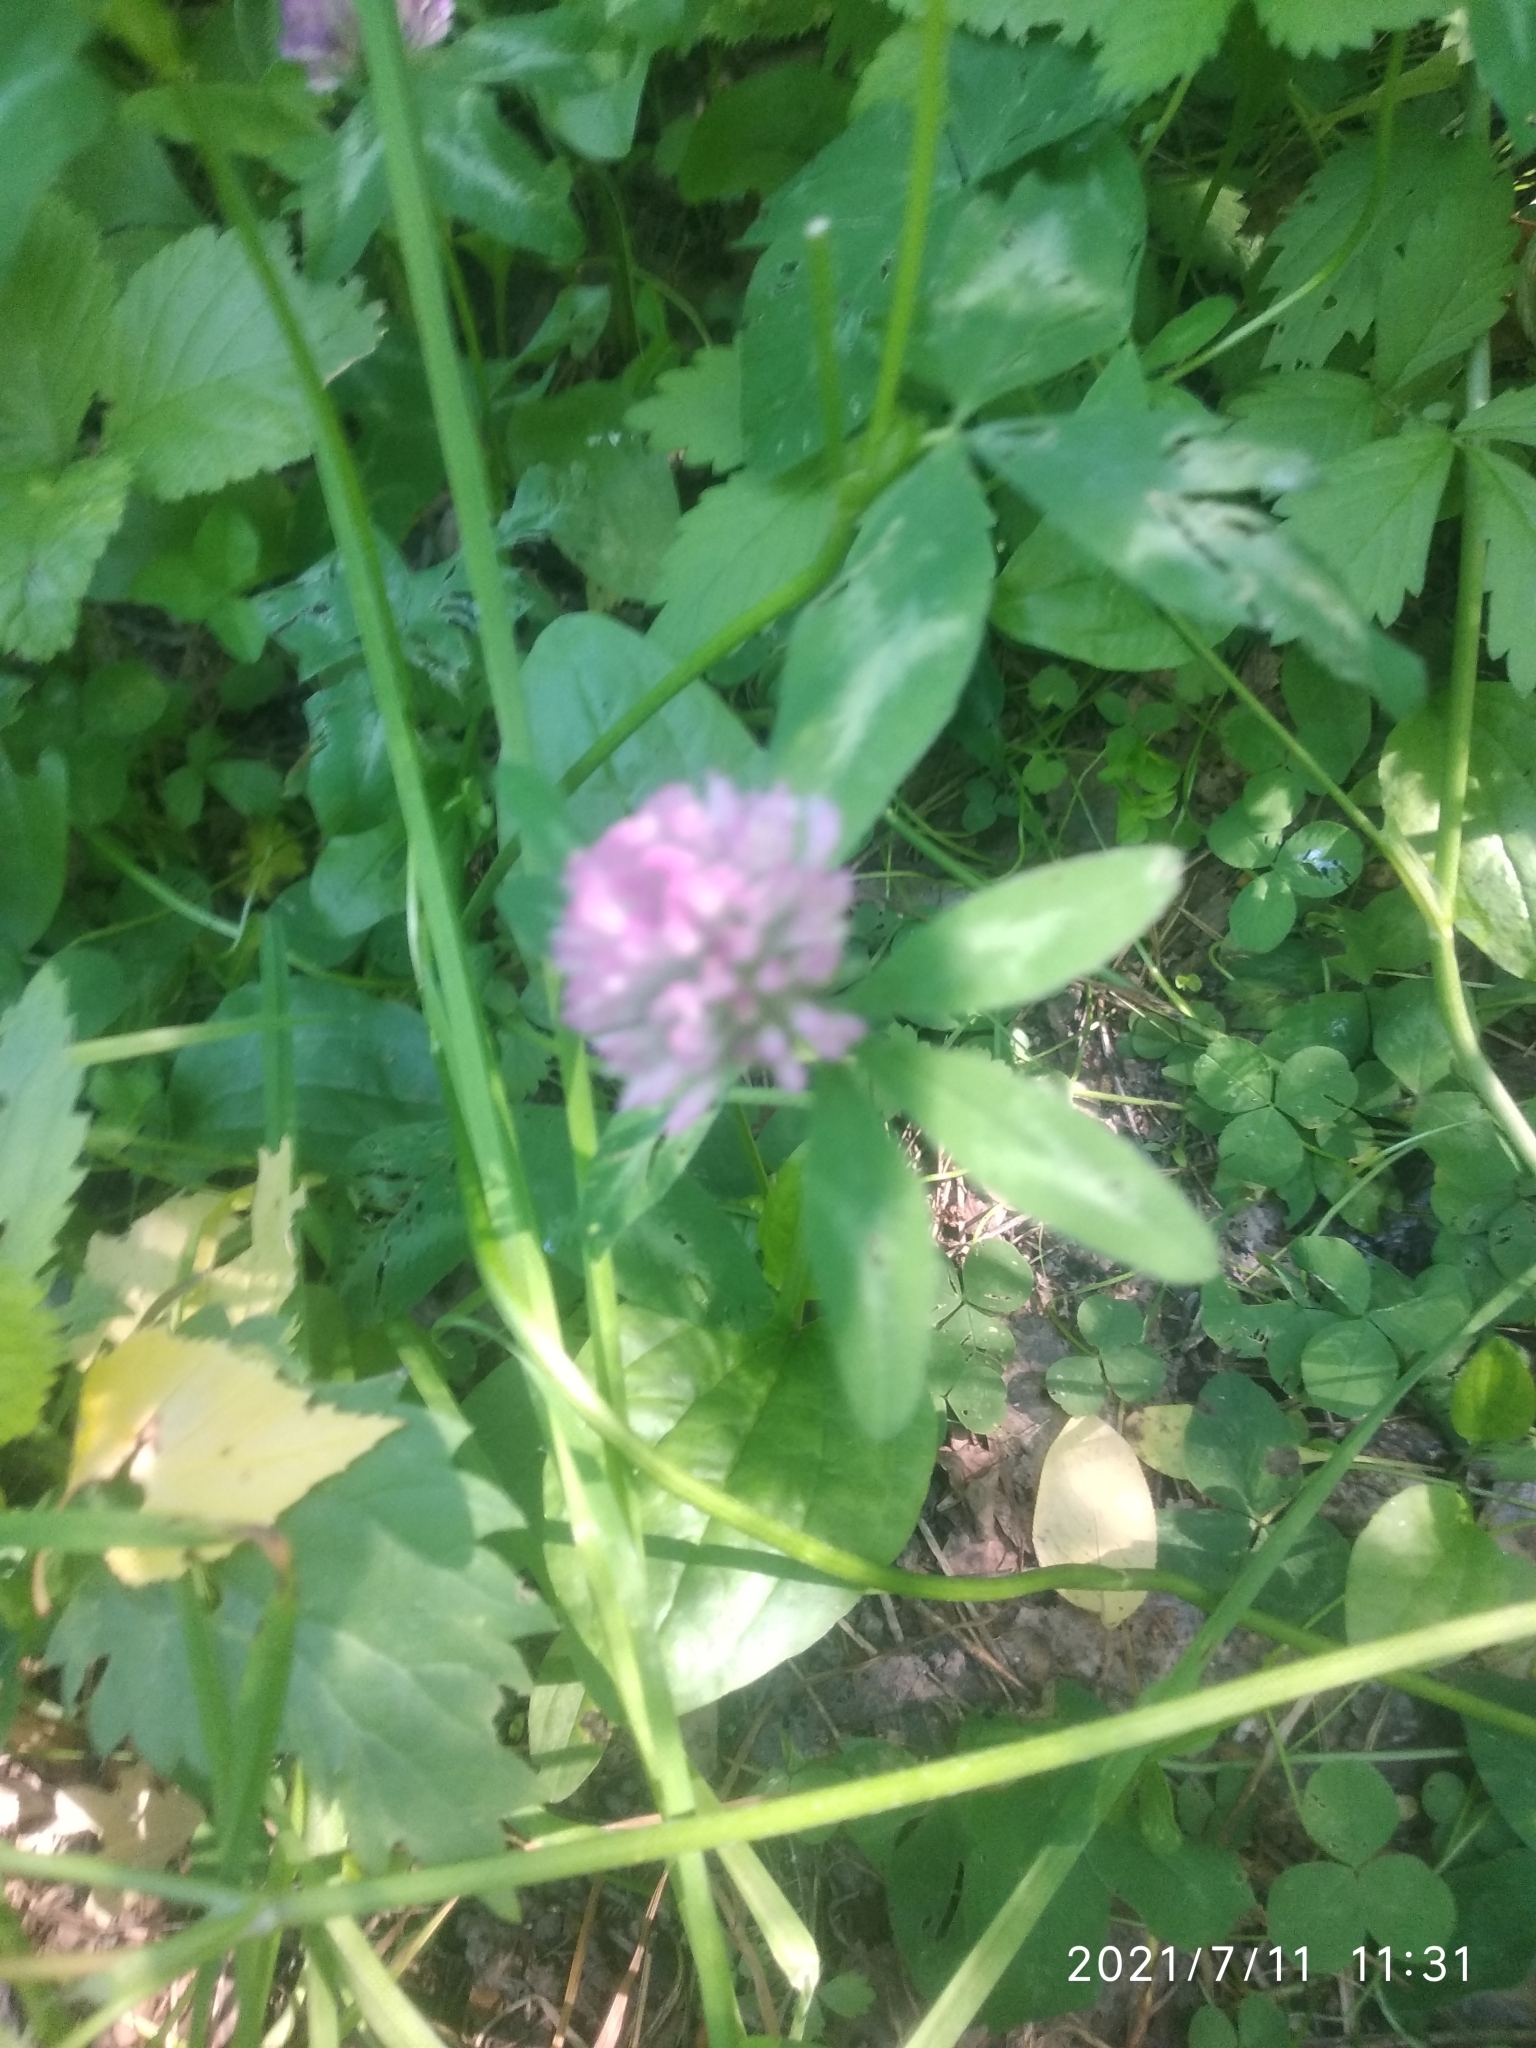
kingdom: Plantae
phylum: Tracheophyta
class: Magnoliopsida
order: Fabales
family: Fabaceae
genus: Trifolium
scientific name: Trifolium pratense
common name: Red clover
